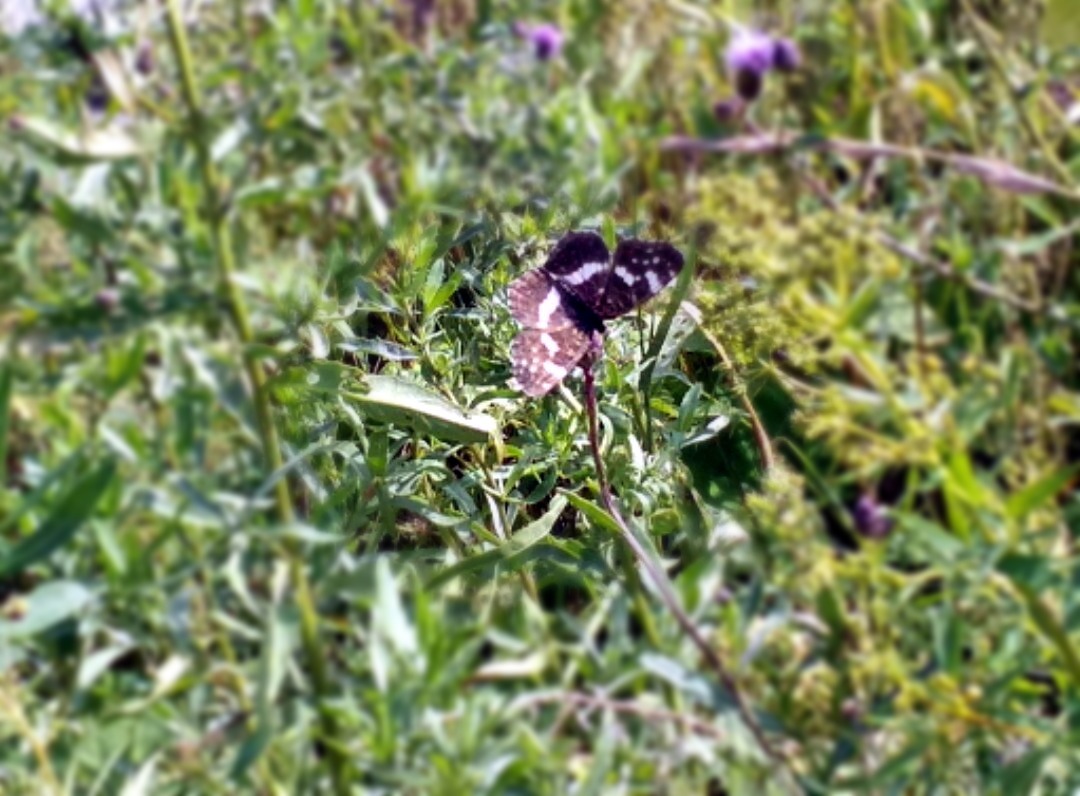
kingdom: Animalia
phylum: Arthropoda
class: Insecta
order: Lepidoptera
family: Nymphalidae
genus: Araschnia
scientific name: Araschnia levana
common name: Map butterfly
